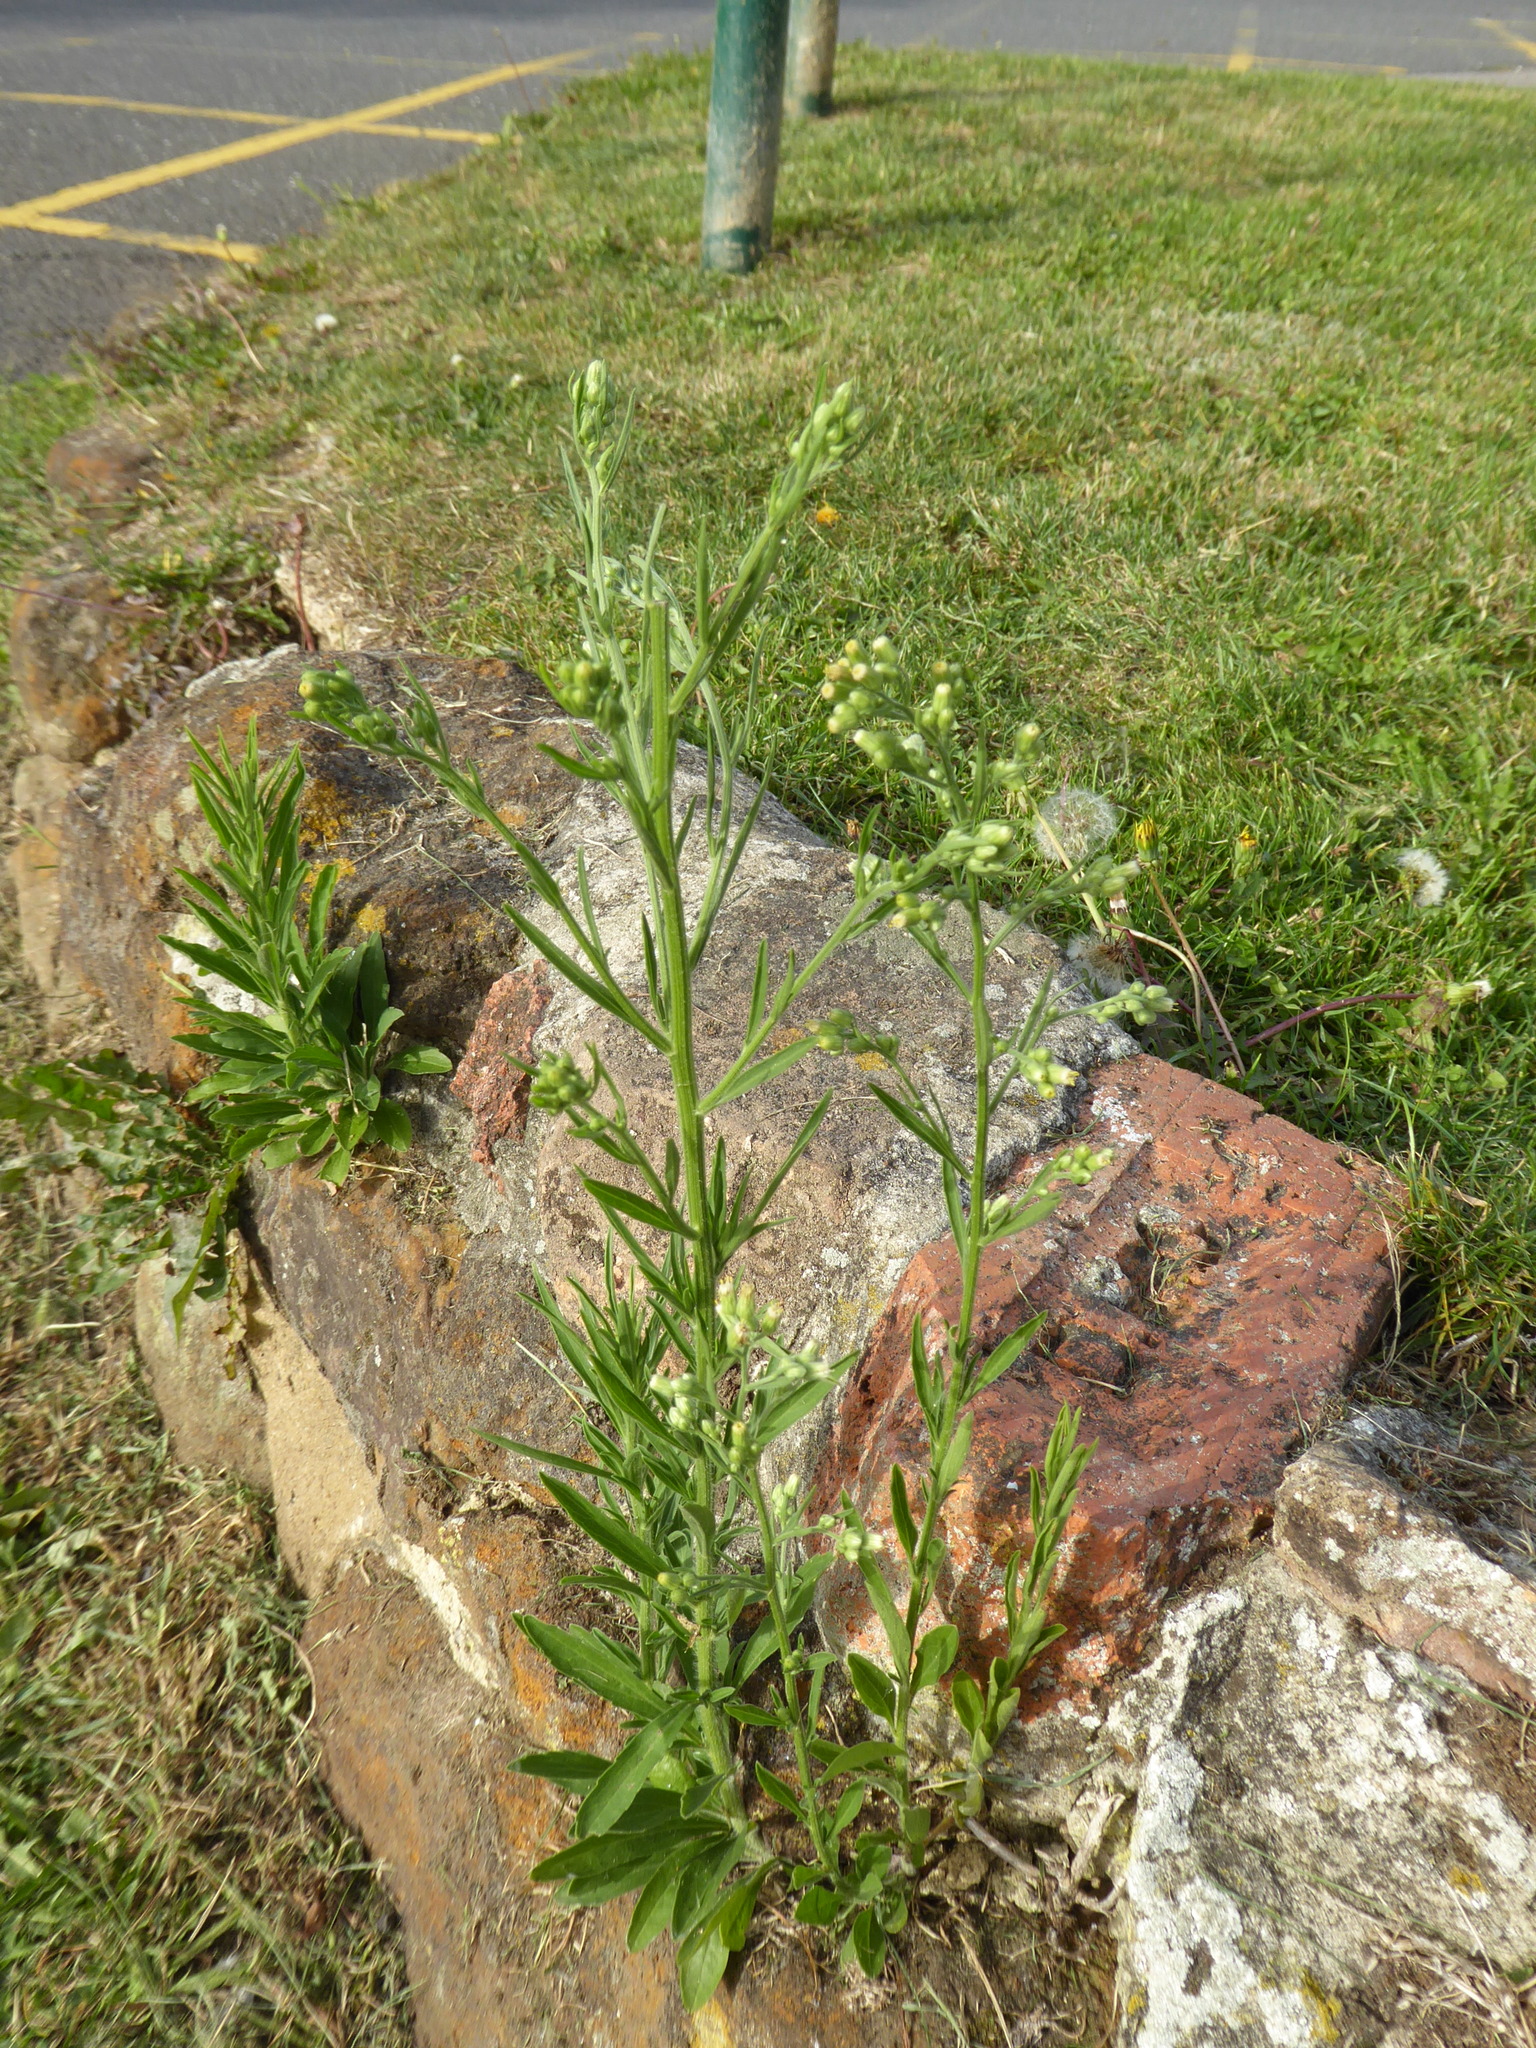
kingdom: Plantae
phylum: Tracheophyta
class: Magnoliopsida
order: Asterales
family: Asteraceae
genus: Erigeron
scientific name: Erigeron sumatrensis
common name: Daisy
